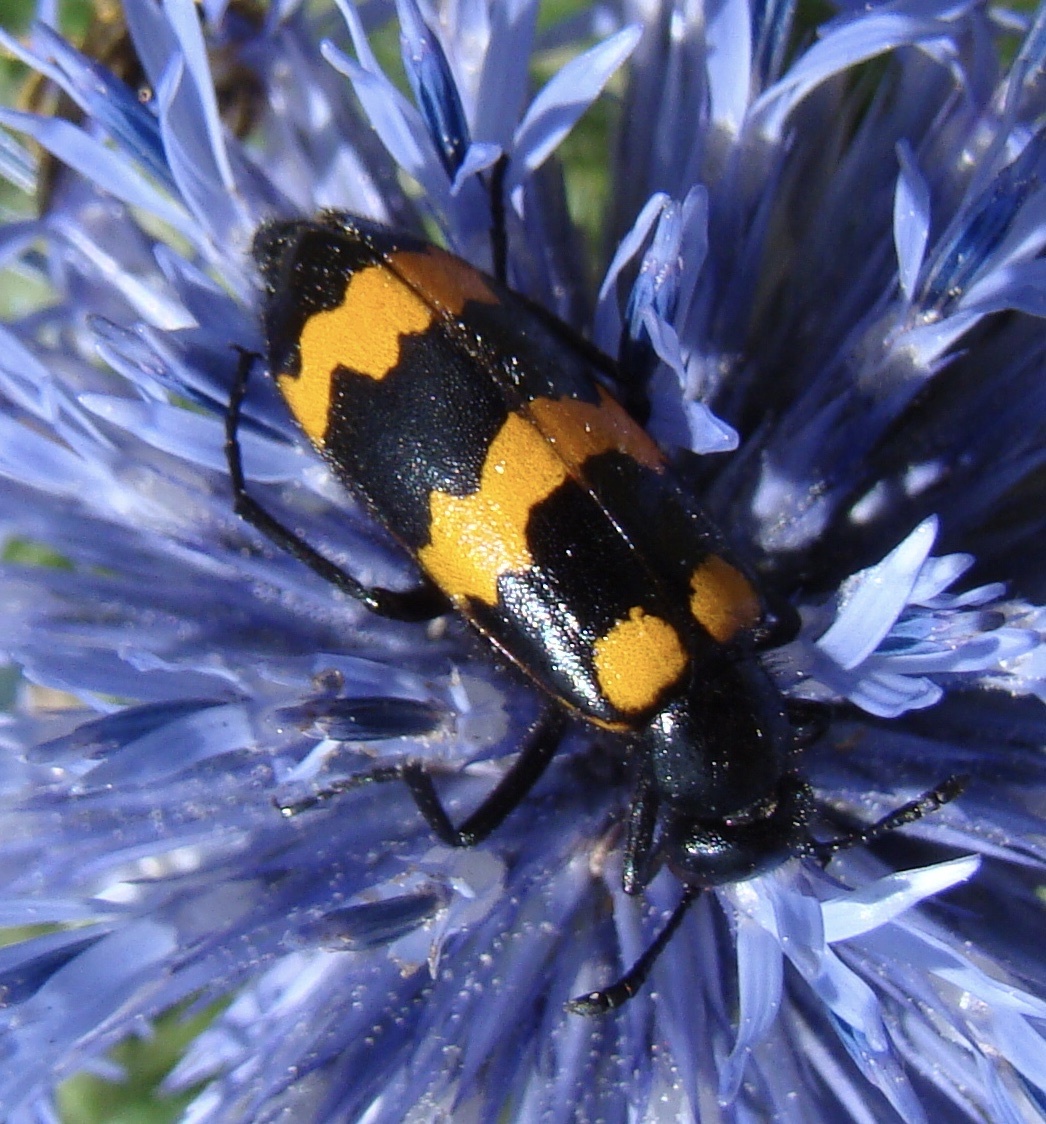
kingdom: Animalia
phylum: Arthropoda
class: Insecta
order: Coleoptera
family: Meloidae
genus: Mylabris
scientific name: Mylabris variabilis
